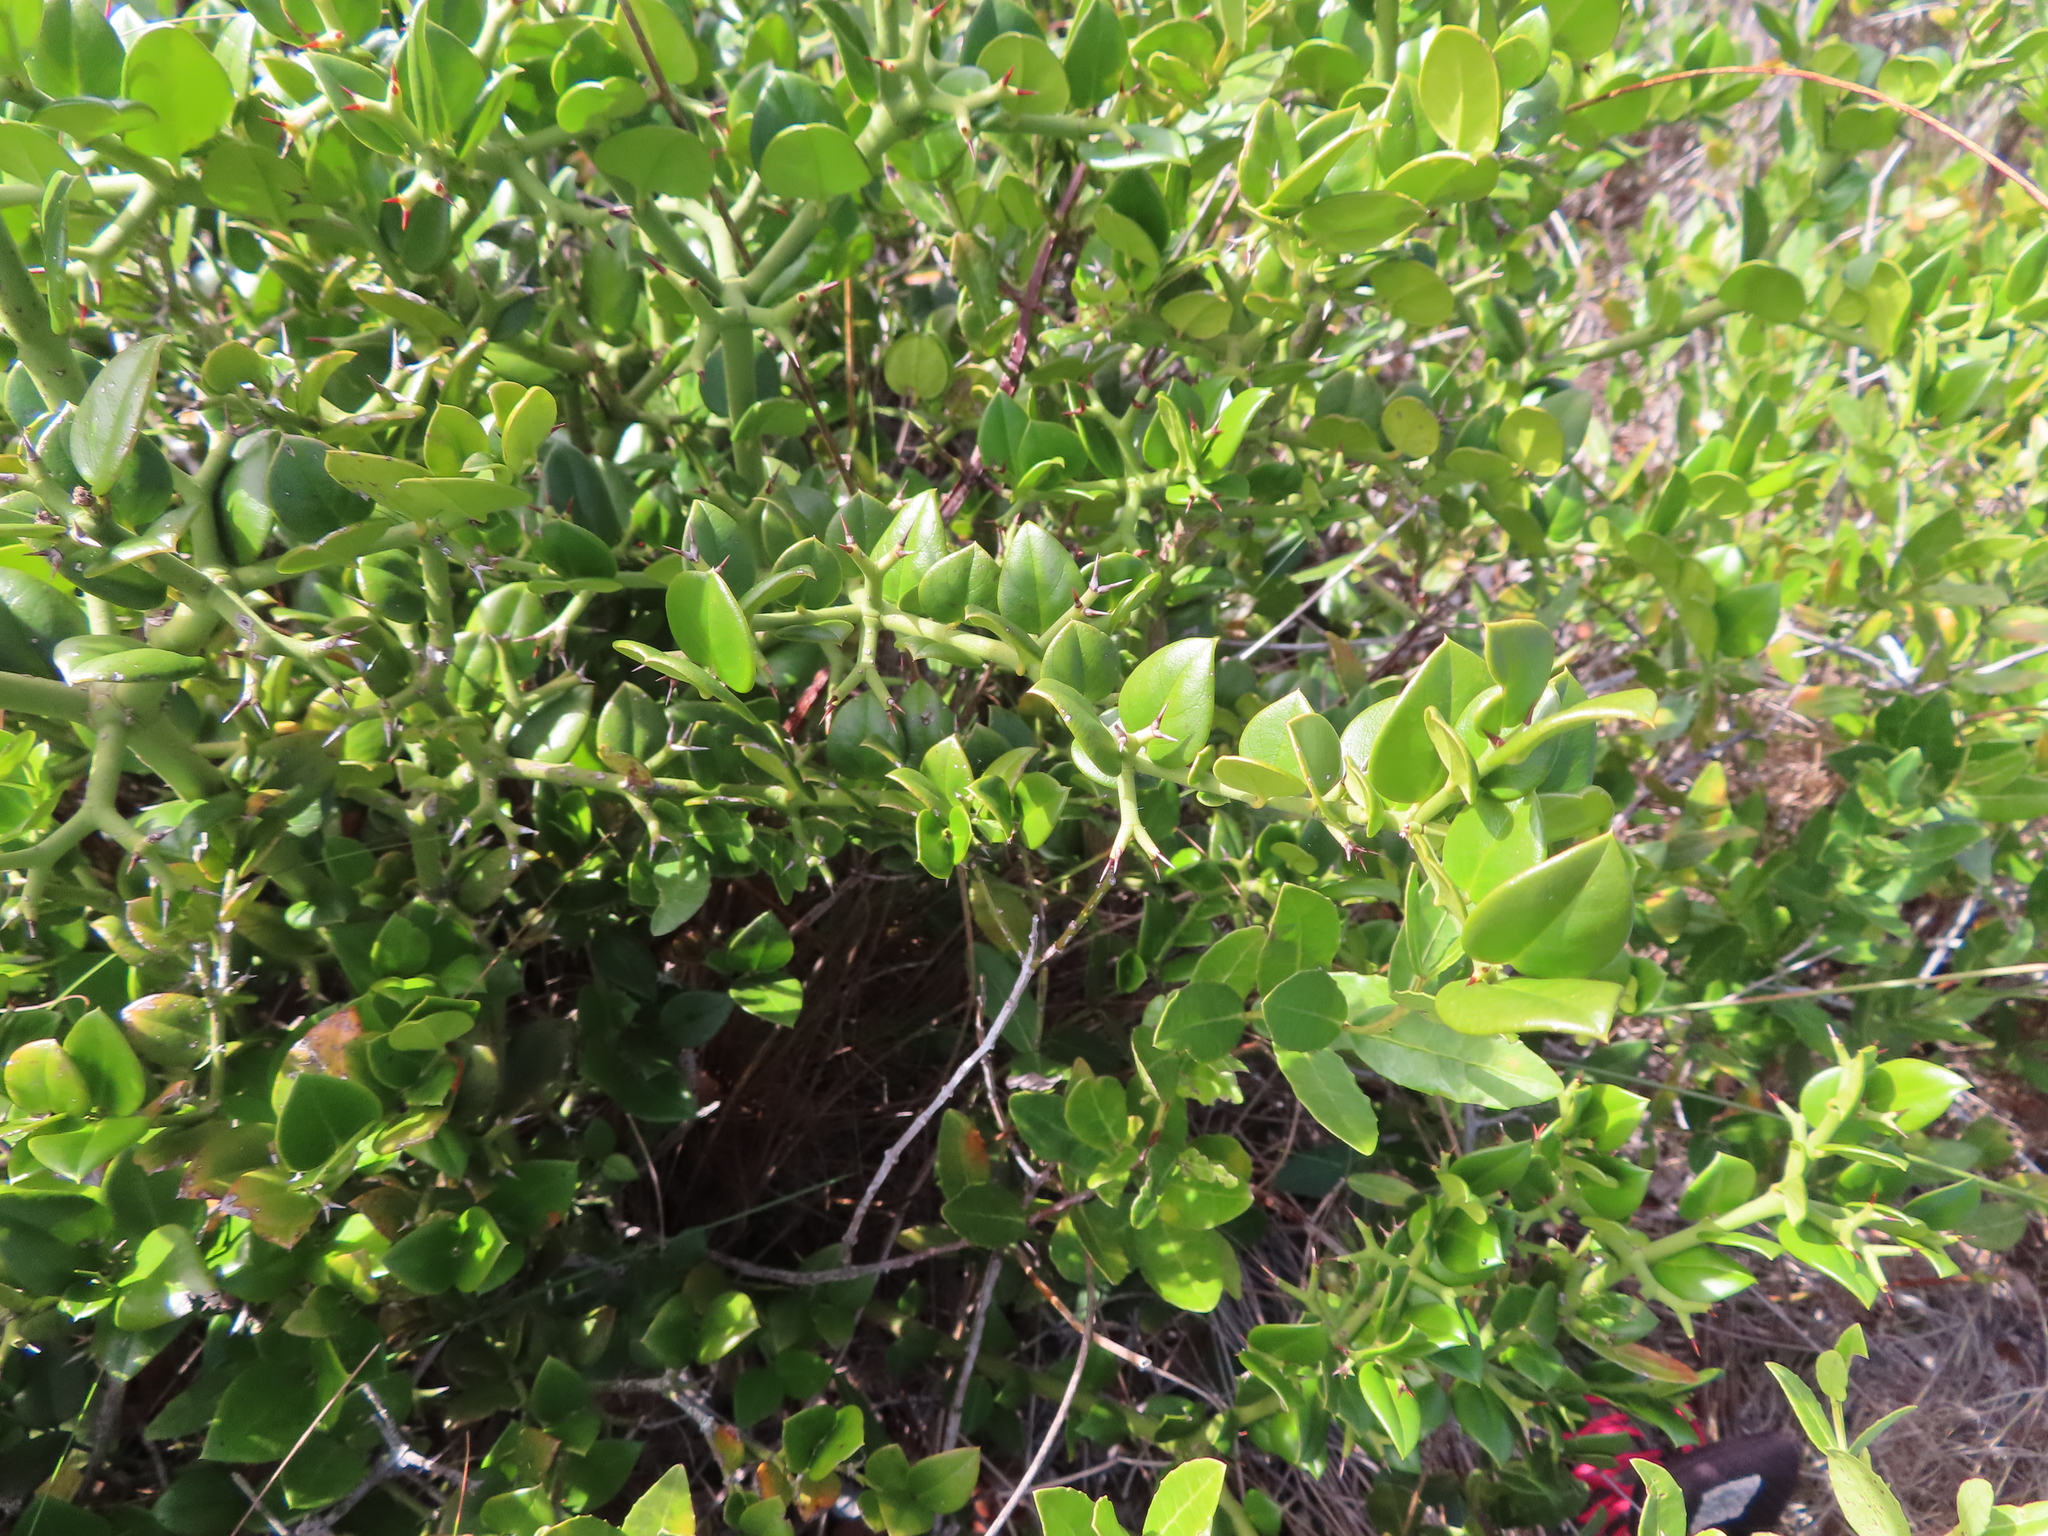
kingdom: Plantae
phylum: Tracheophyta
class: Magnoliopsida
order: Gentianales
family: Apocynaceae
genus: Carissa
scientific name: Carissa bispinosa
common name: Forest num-num
